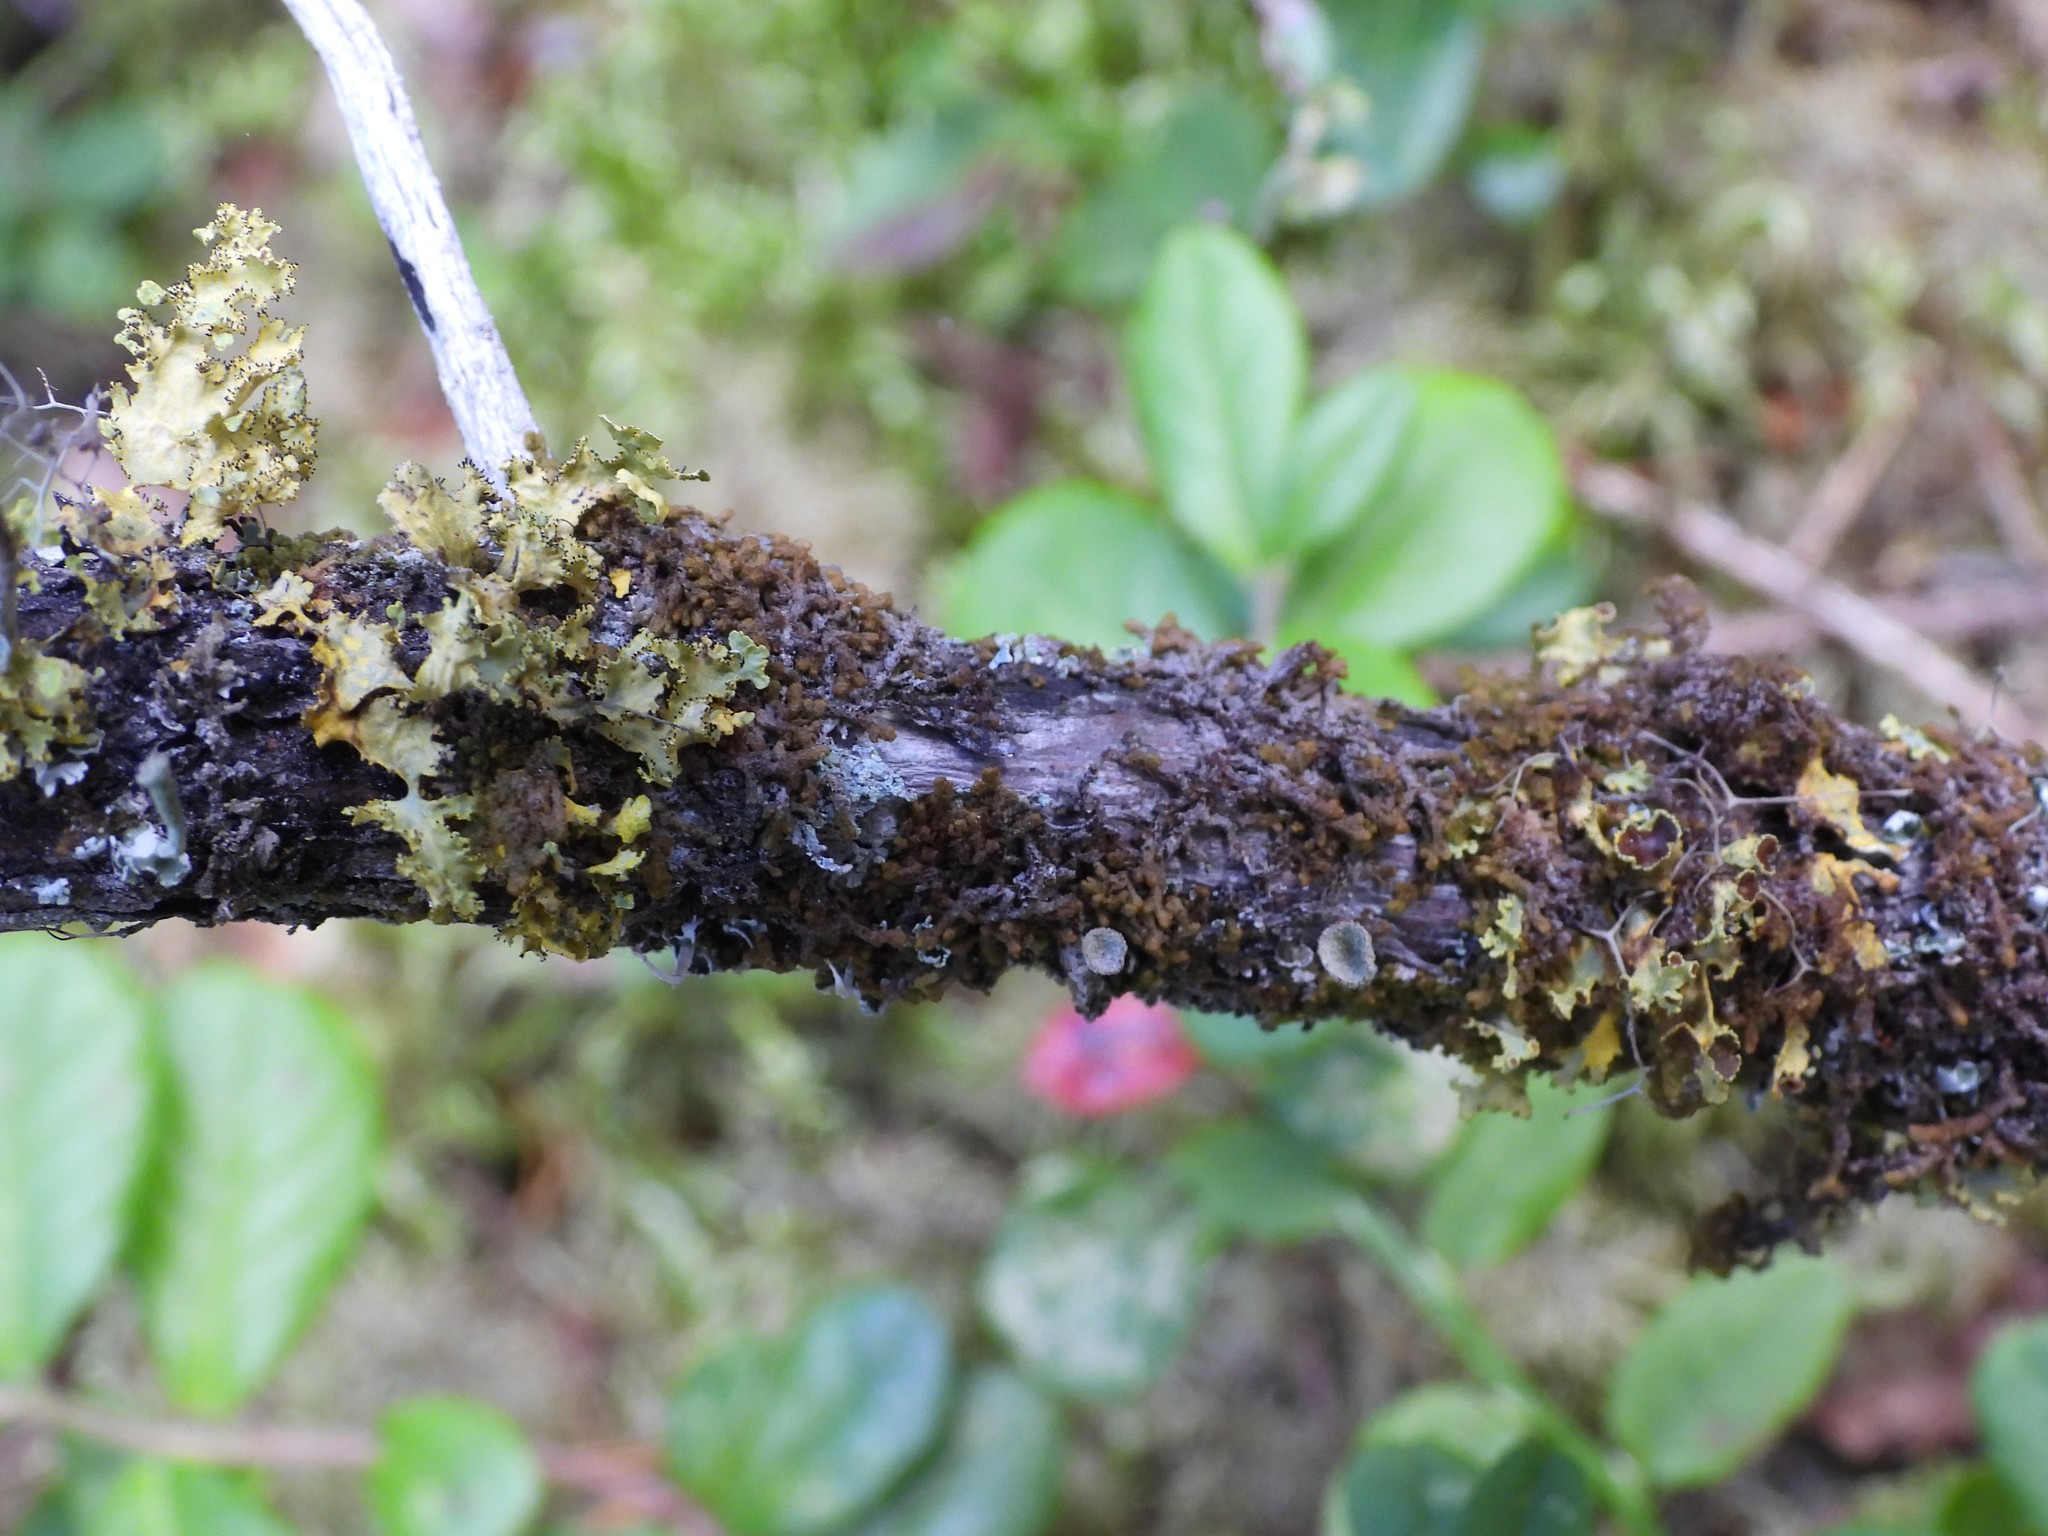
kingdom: Fungi
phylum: Ascomycota
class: Lecanoromycetes
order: Lecanorales
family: Parmeliaceae
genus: Vulpicida
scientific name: Vulpicida juniperinus
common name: Yellow lichen
